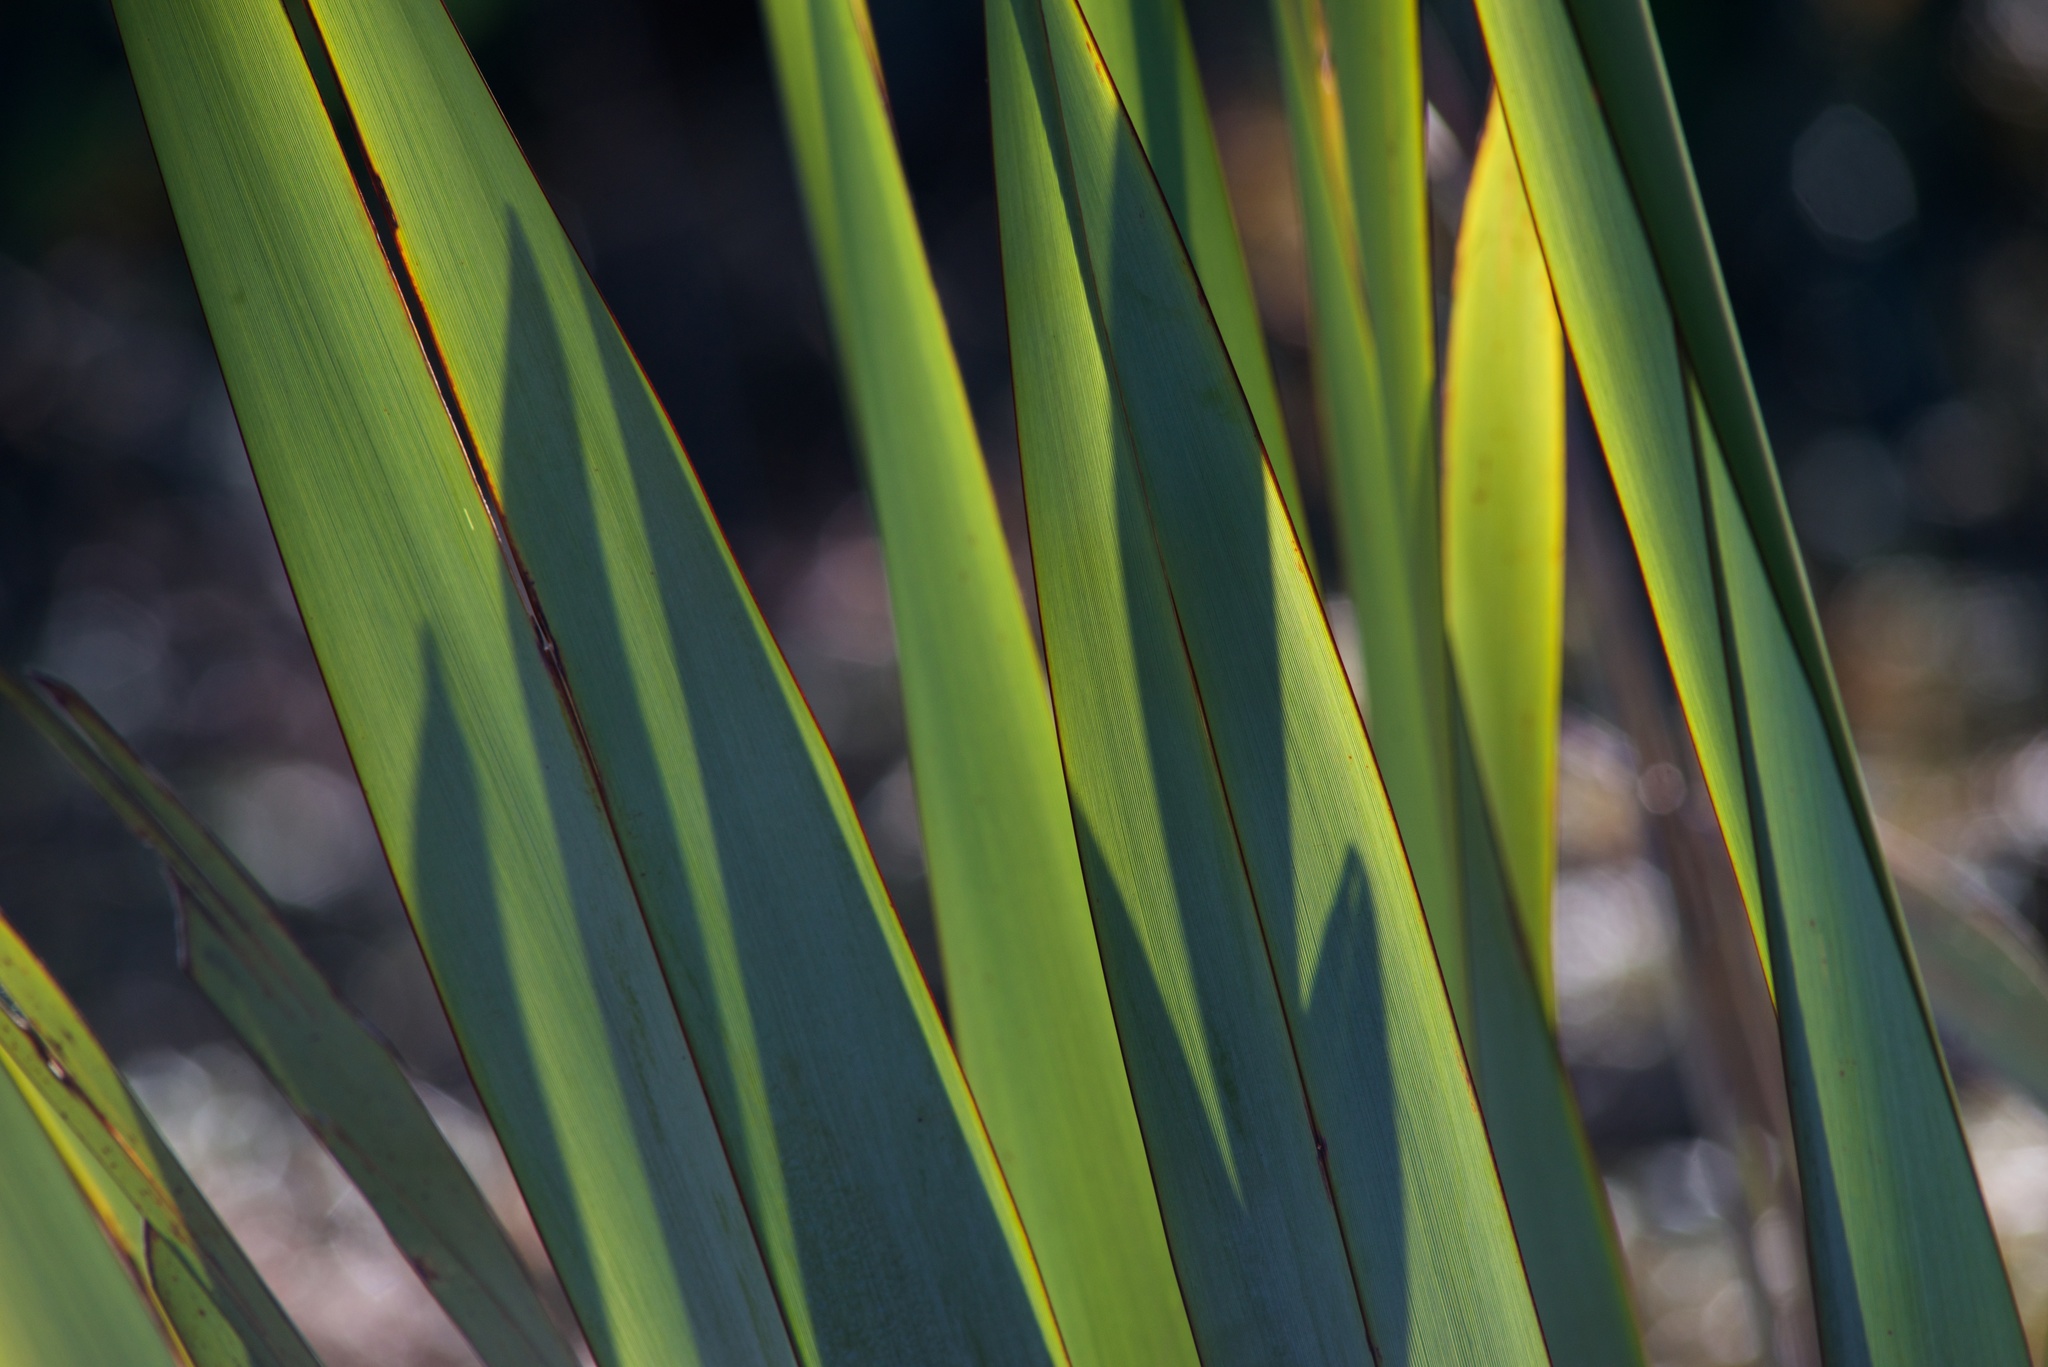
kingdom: Plantae
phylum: Tracheophyta
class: Liliopsida
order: Asparagales
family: Asphodelaceae
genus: Phormium
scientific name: Phormium tenax
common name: New zealand flax
